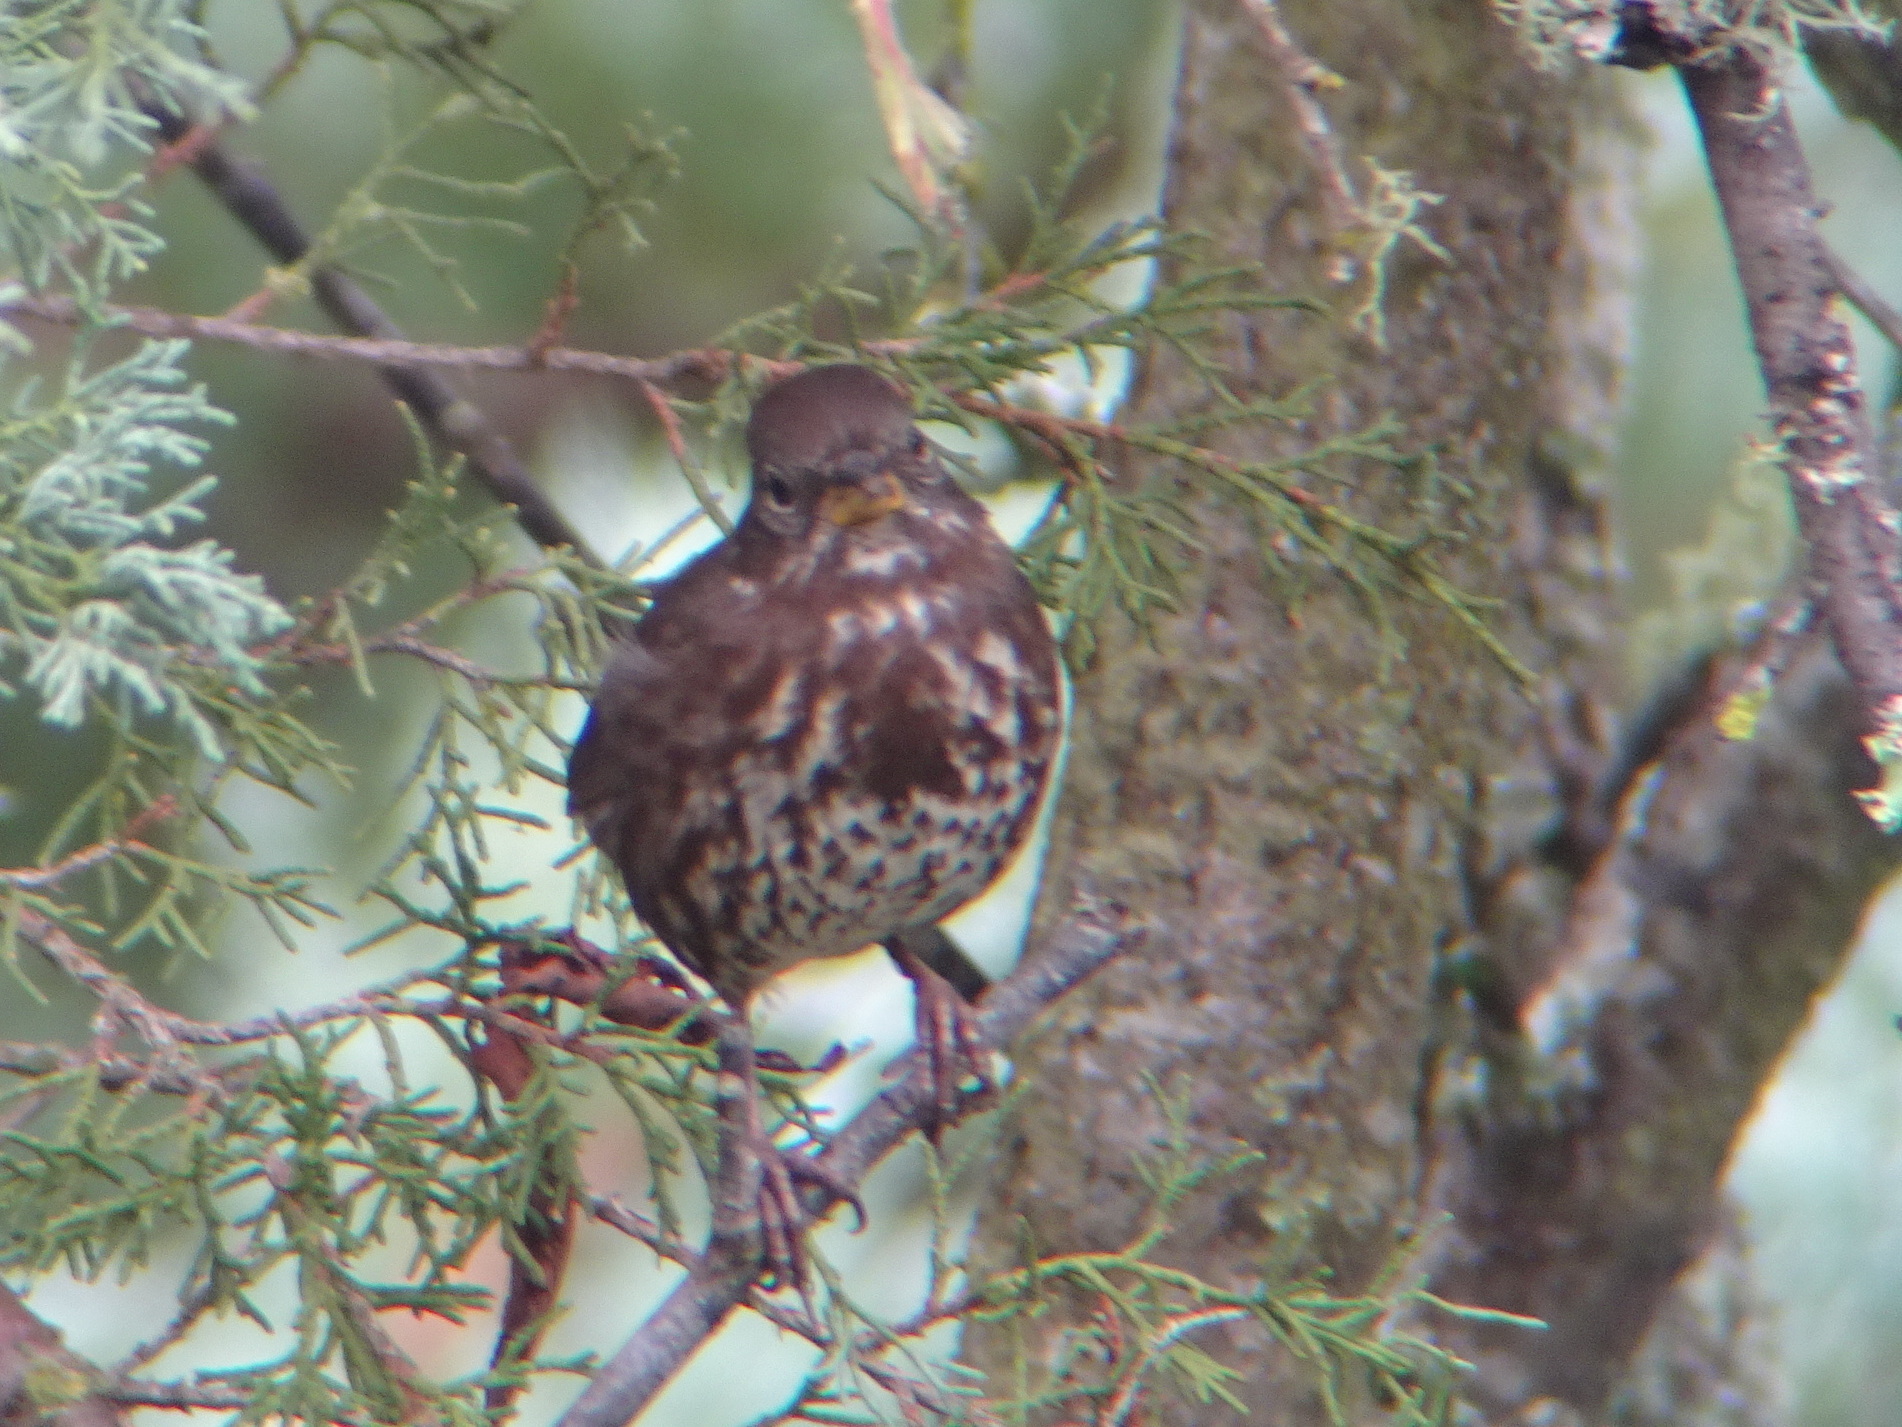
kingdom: Animalia
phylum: Chordata
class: Aves
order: Passeriformes
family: Passerellidae
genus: Passerella
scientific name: Passerella iliaca
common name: Fox sparrow
